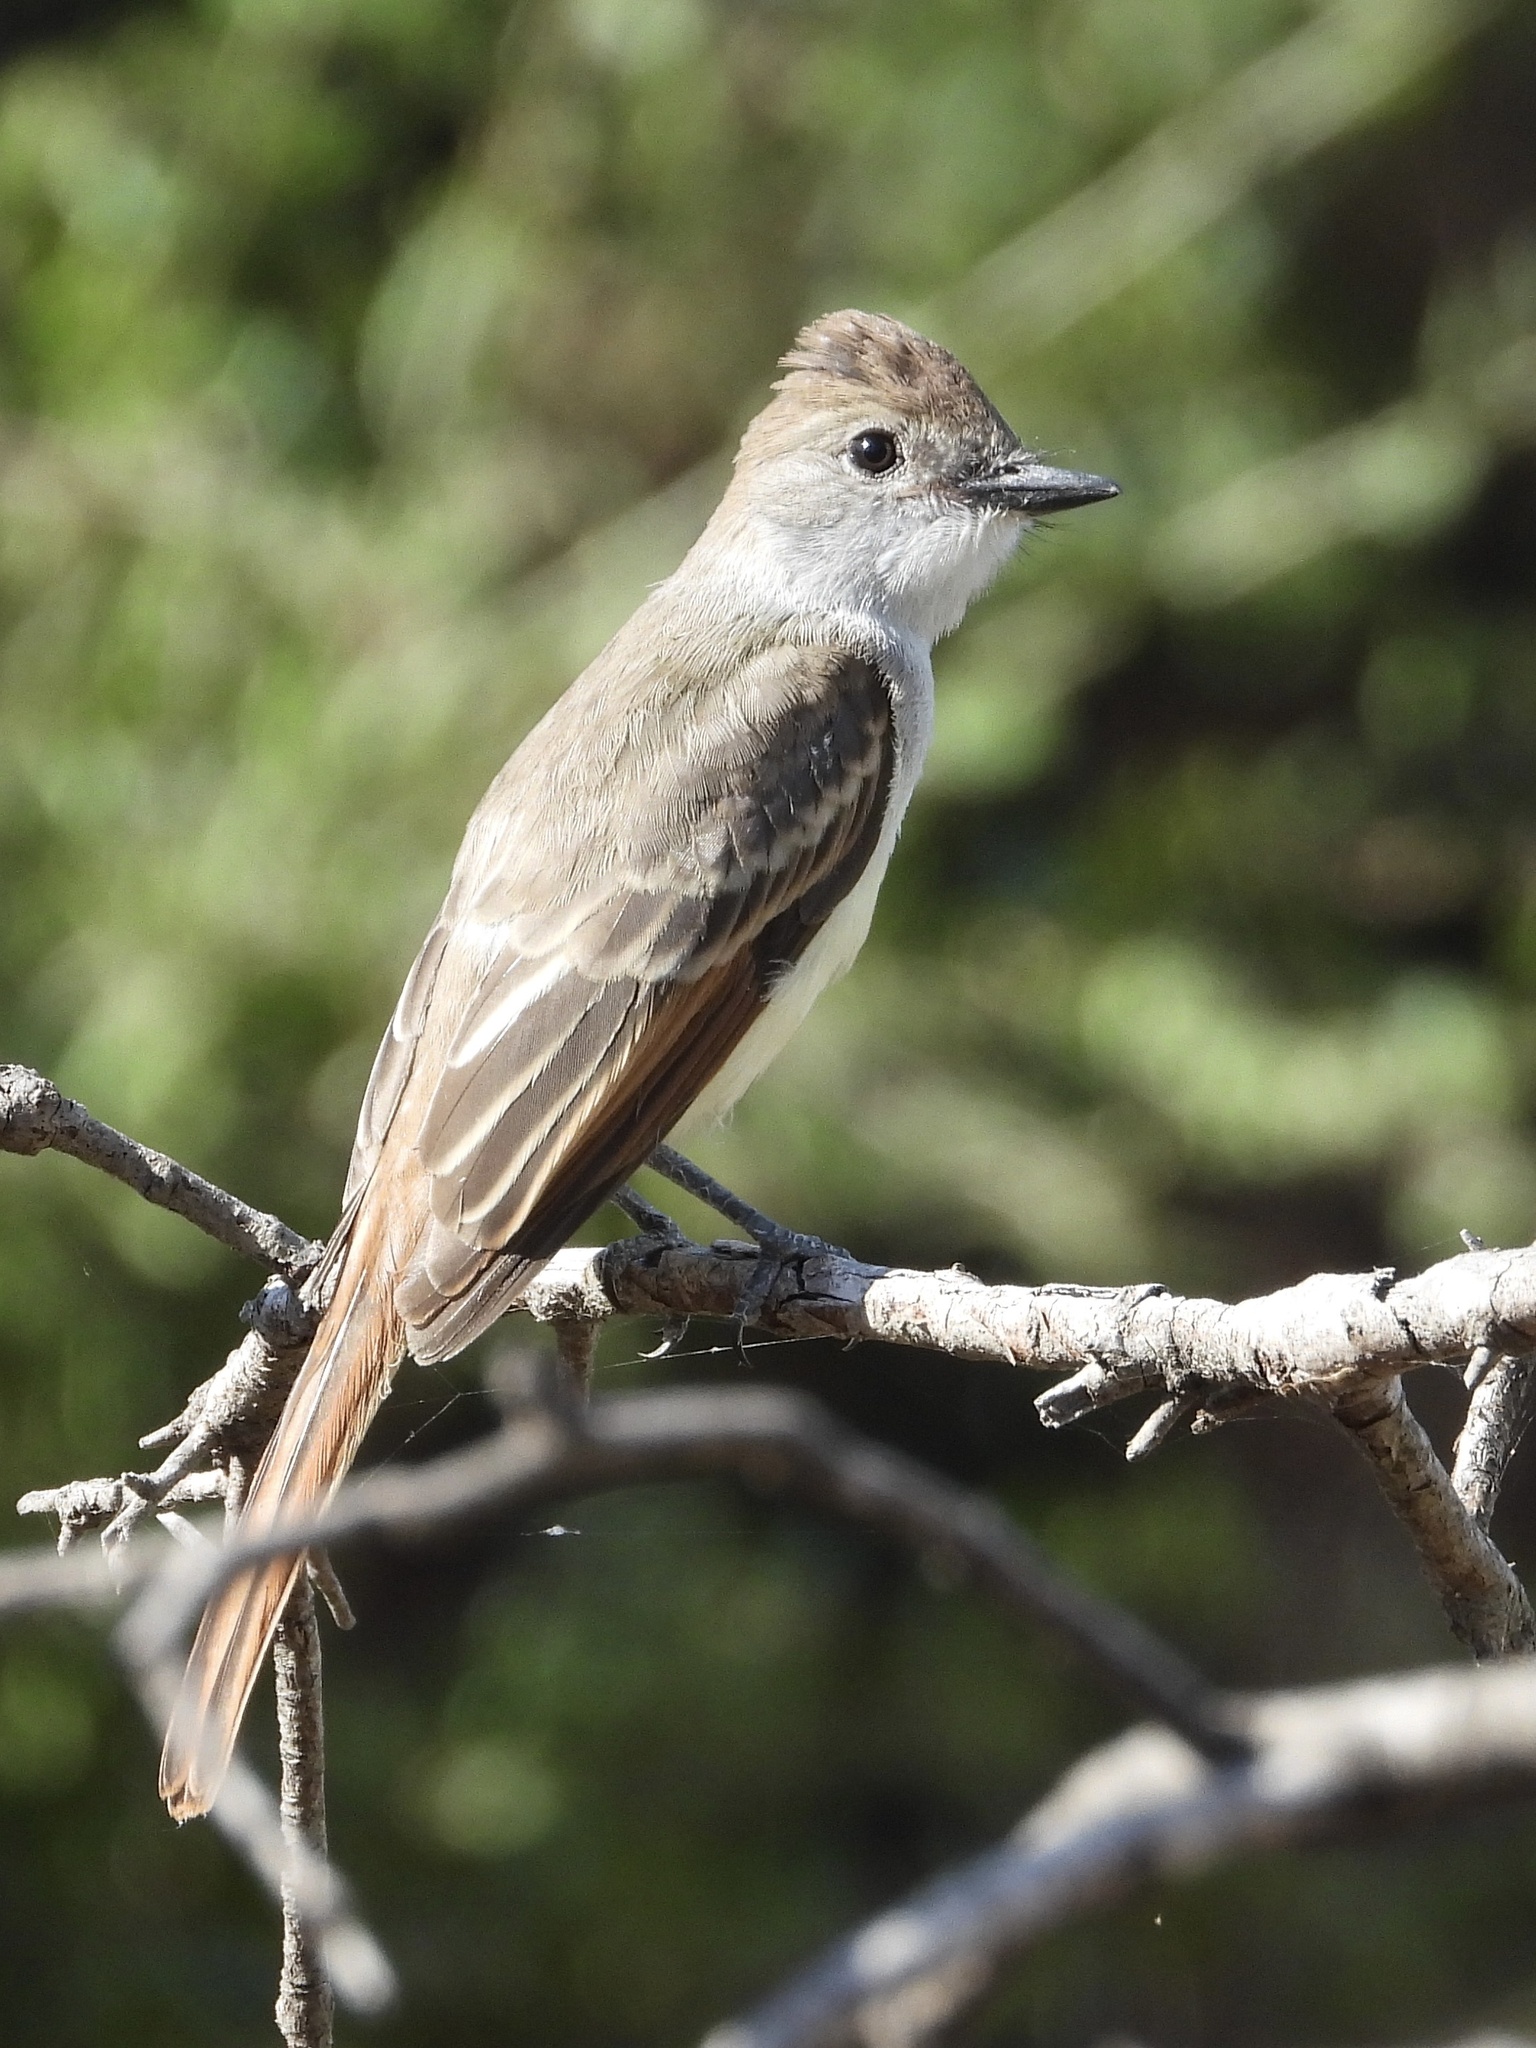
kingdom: Animalia
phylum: Chordata
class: Aves
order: Passeriformes
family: Tyrannidae
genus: Myiarchus
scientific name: Myiarchus cinerascens
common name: Ash-throated flycatcher
